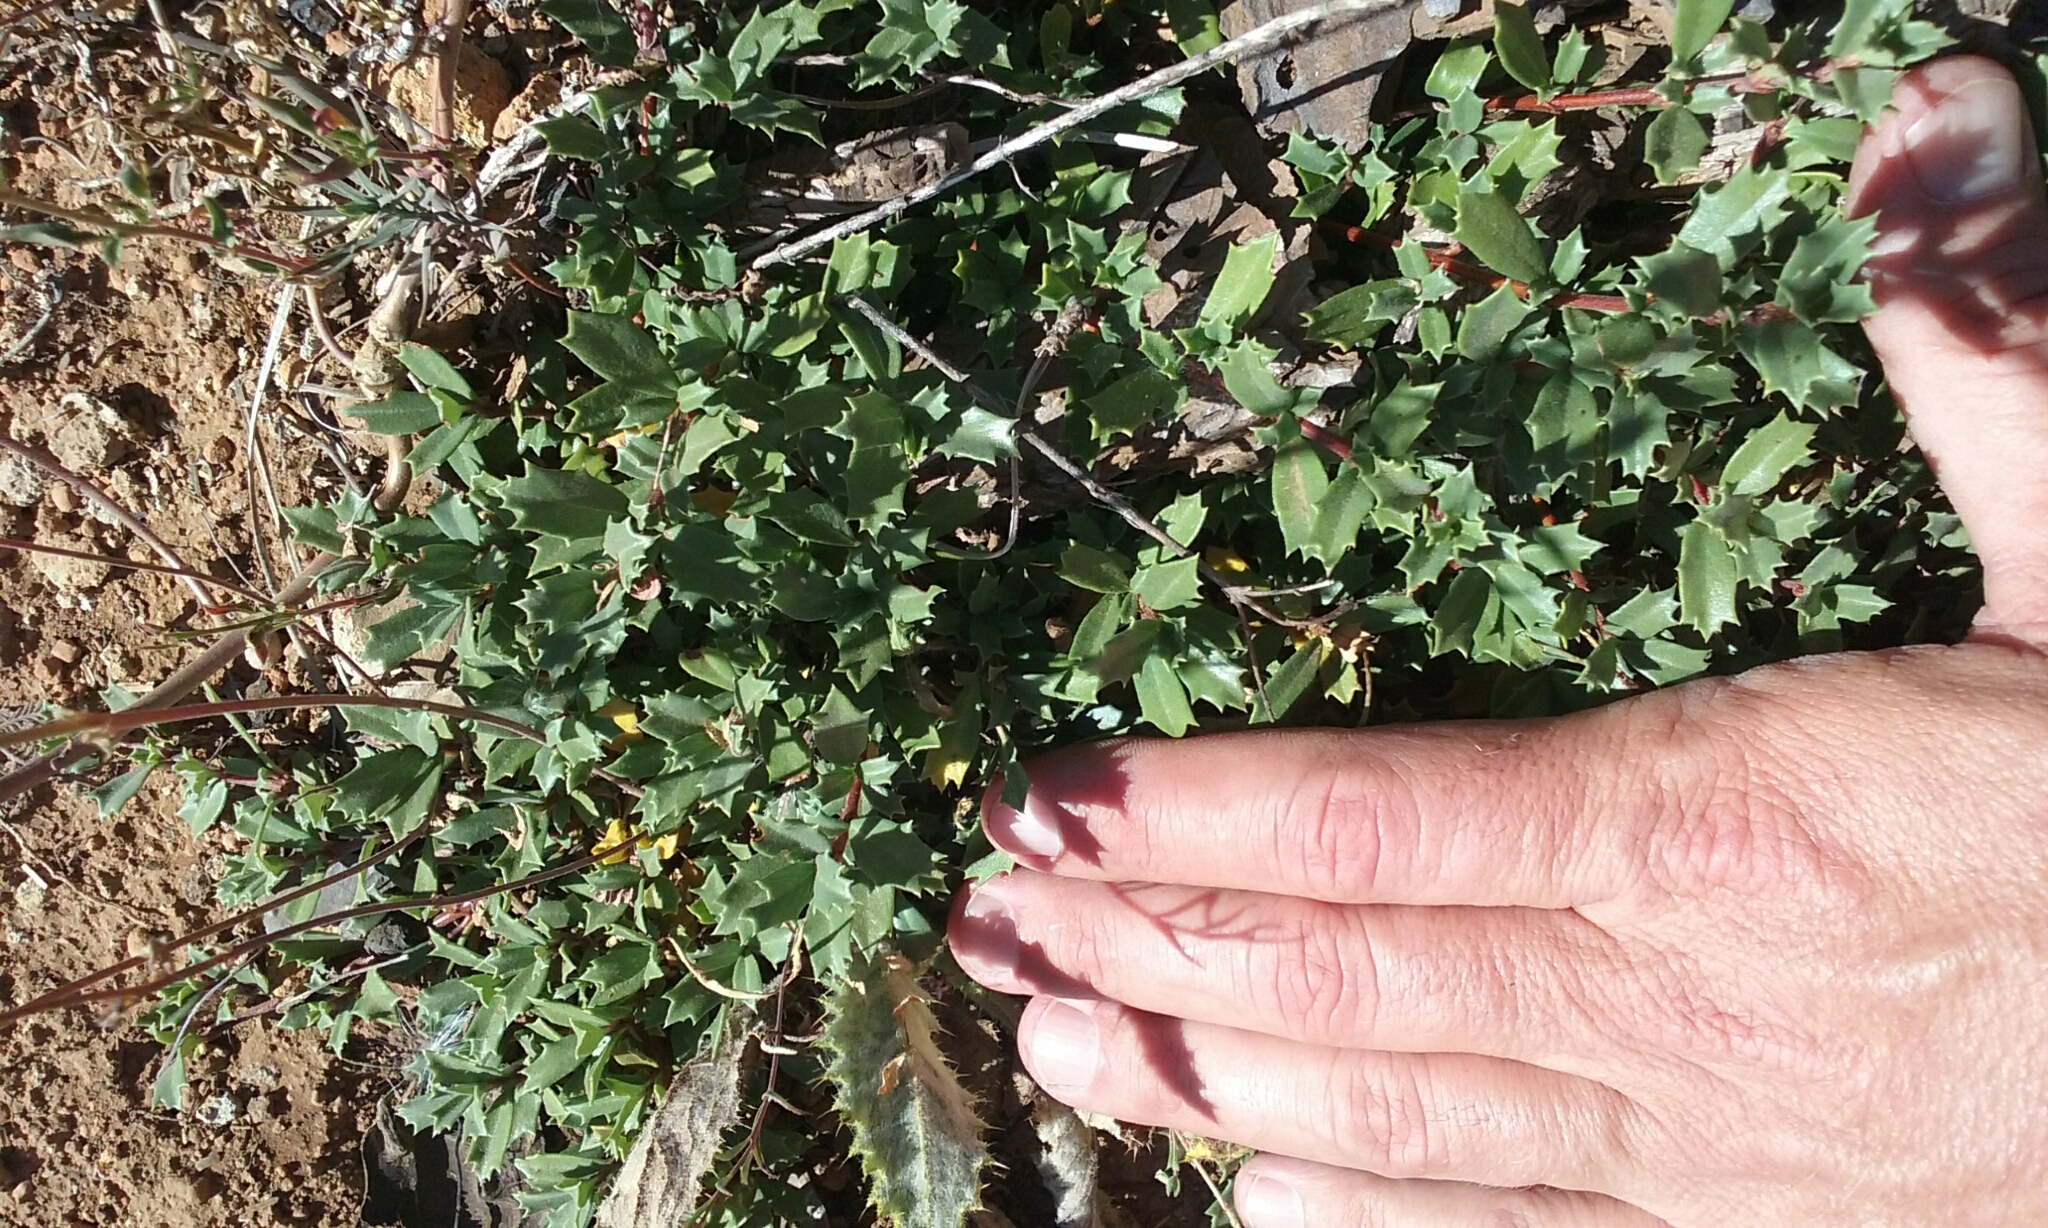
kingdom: Plantae
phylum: Tracheophyta
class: Magnoliopsida
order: Rosales
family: Rhamnaceae
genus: Ceanothus
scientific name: Ceanothus prostratus
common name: Mahala-mat
